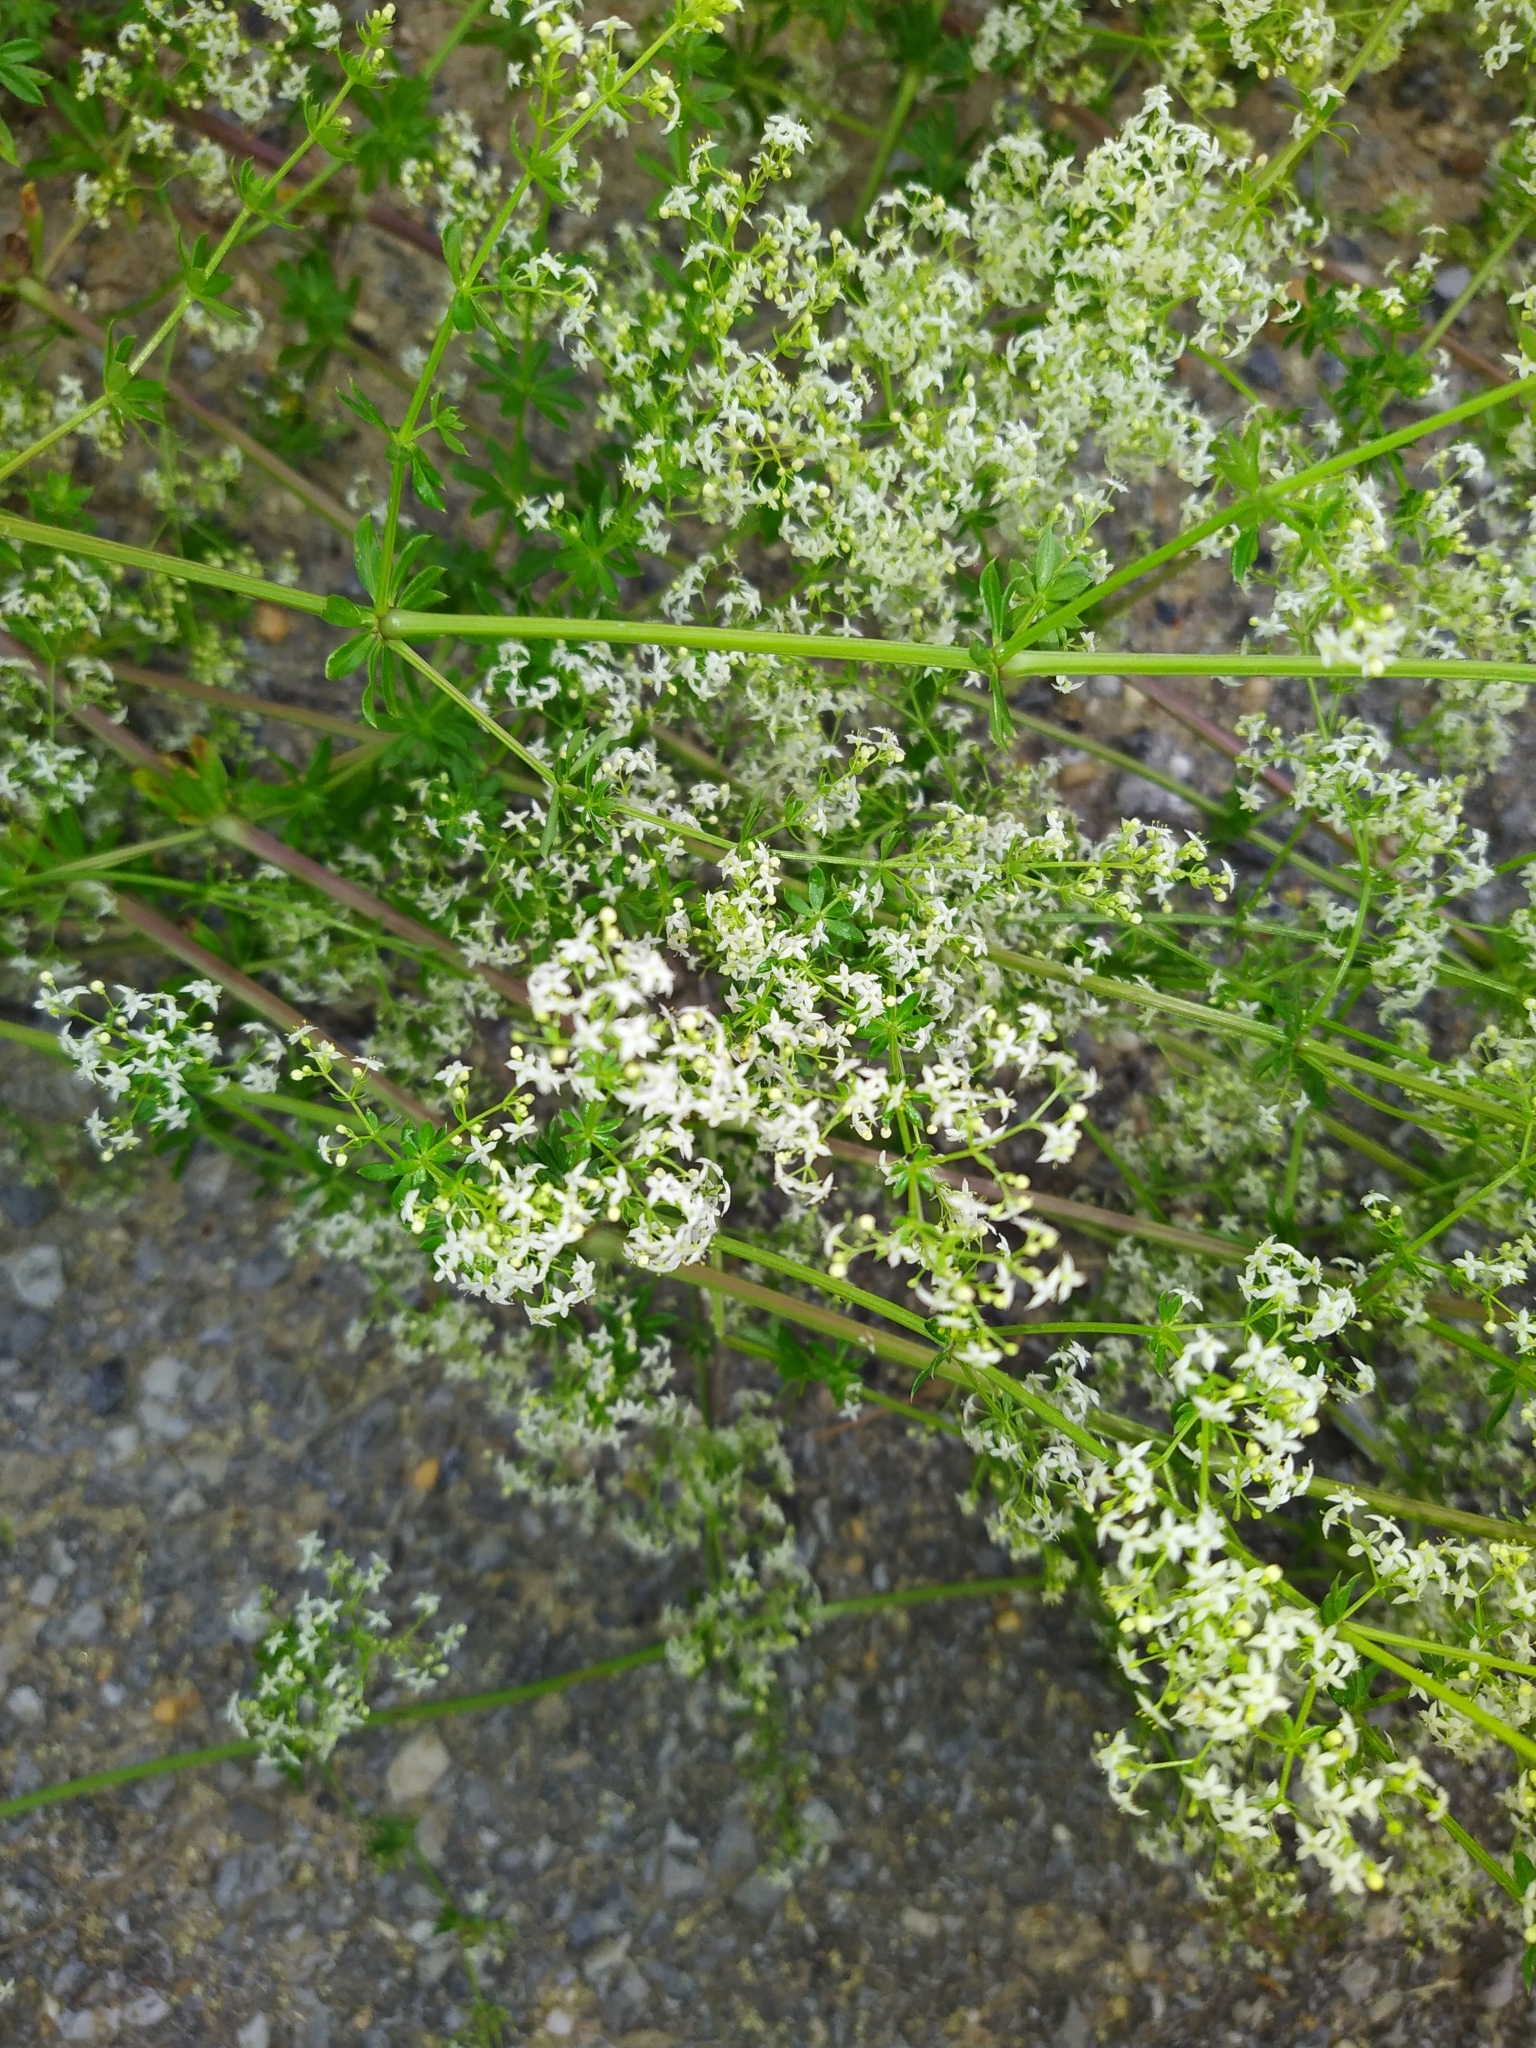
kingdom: Plantae
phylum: Tracheophyta
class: Magnoliopsida
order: Gentianales
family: Rubiaceae
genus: Galium
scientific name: Galium mollugo
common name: Hedge bedstraw
